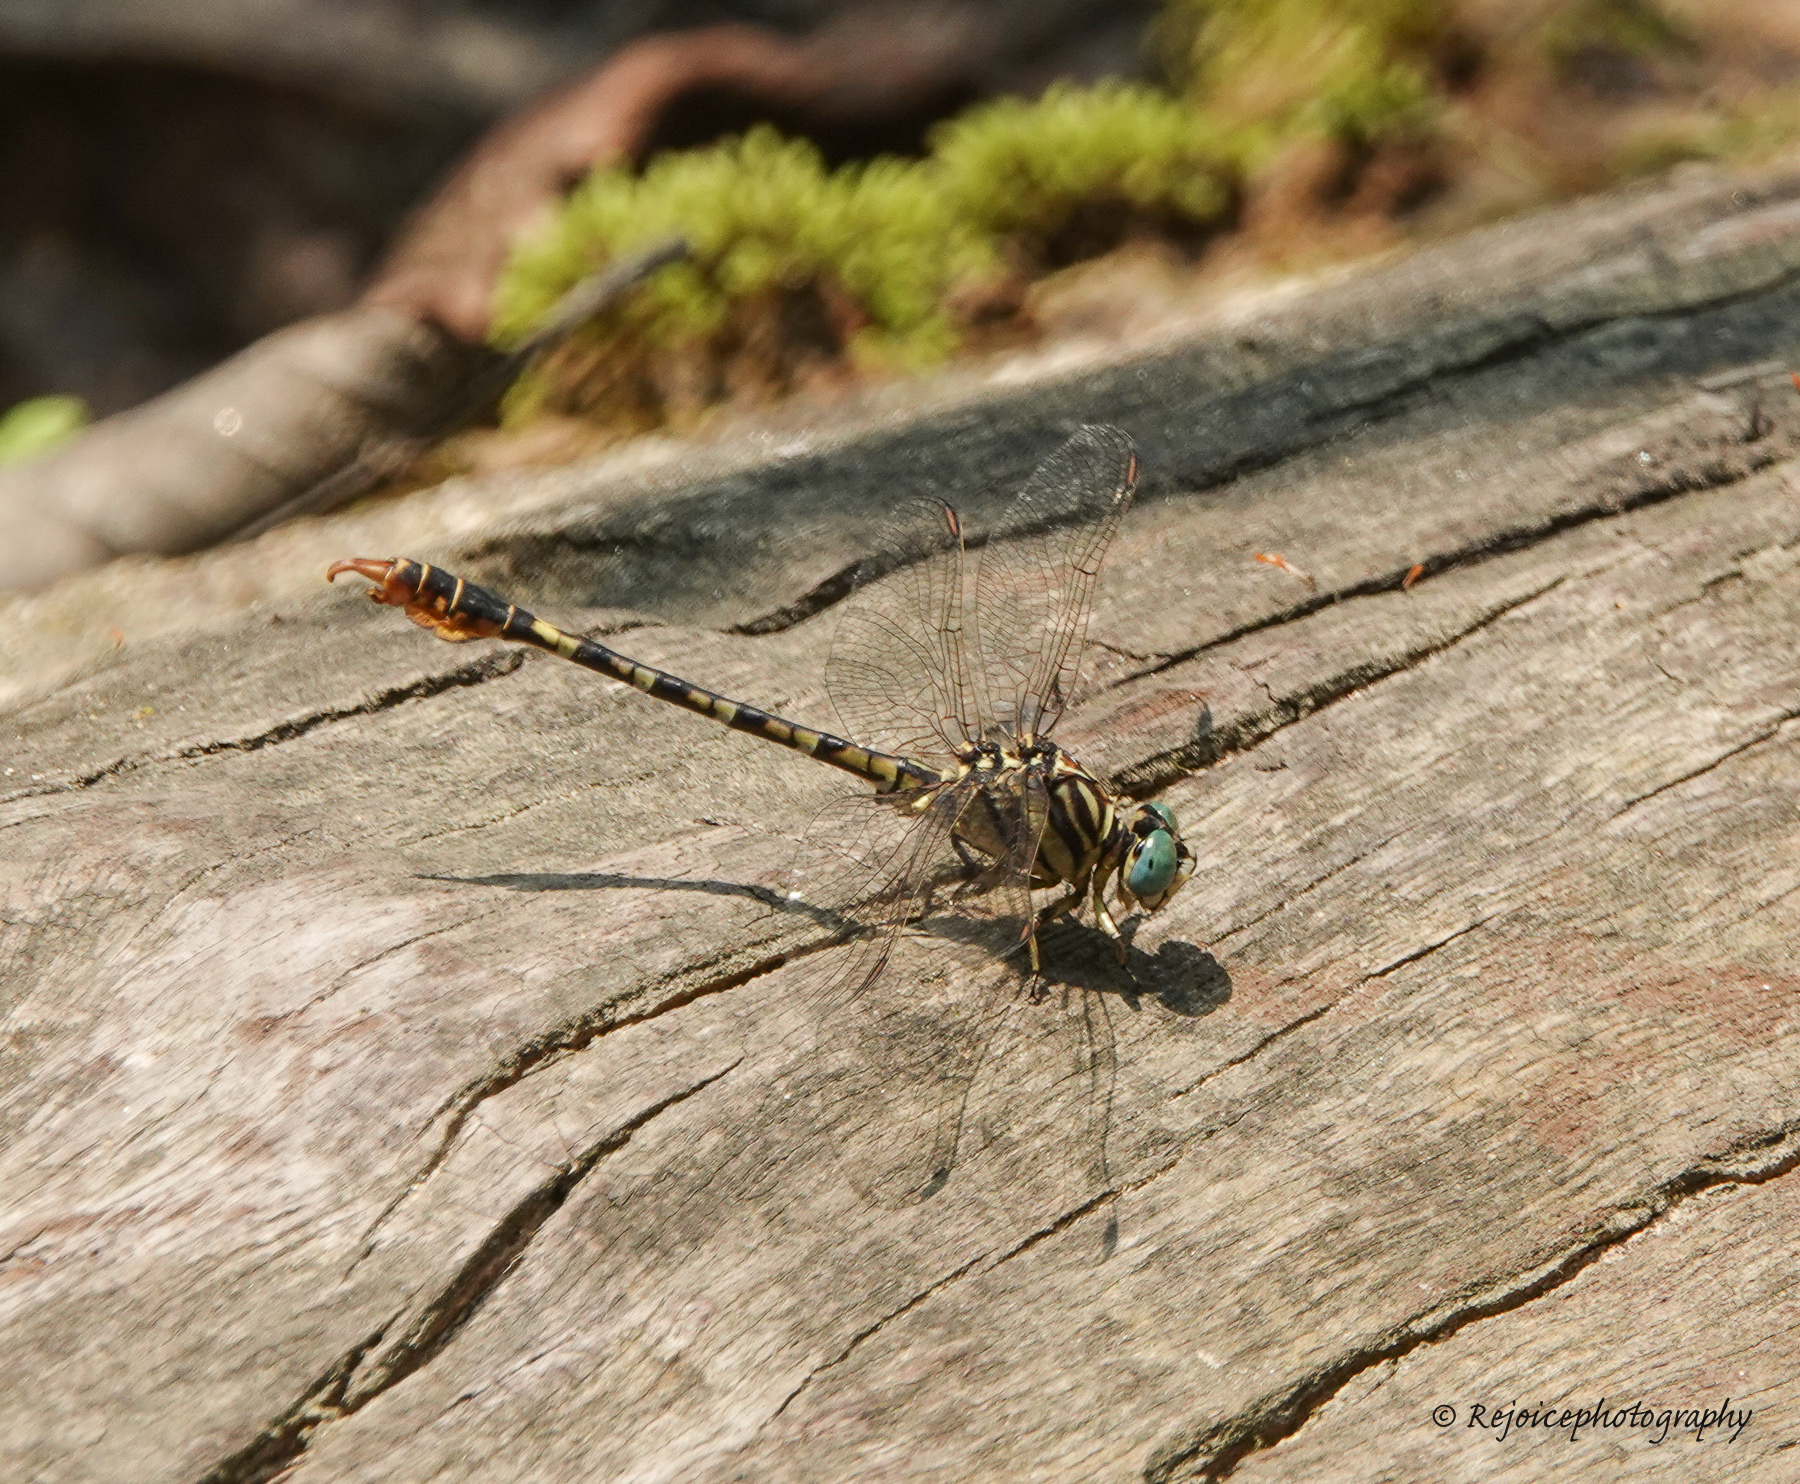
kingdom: Animalia
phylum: Arthropoda
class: Insecta
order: Odonata
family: Gomphidae
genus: Paragomphus
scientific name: Paragomphus lineatus
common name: Lined hooktail
